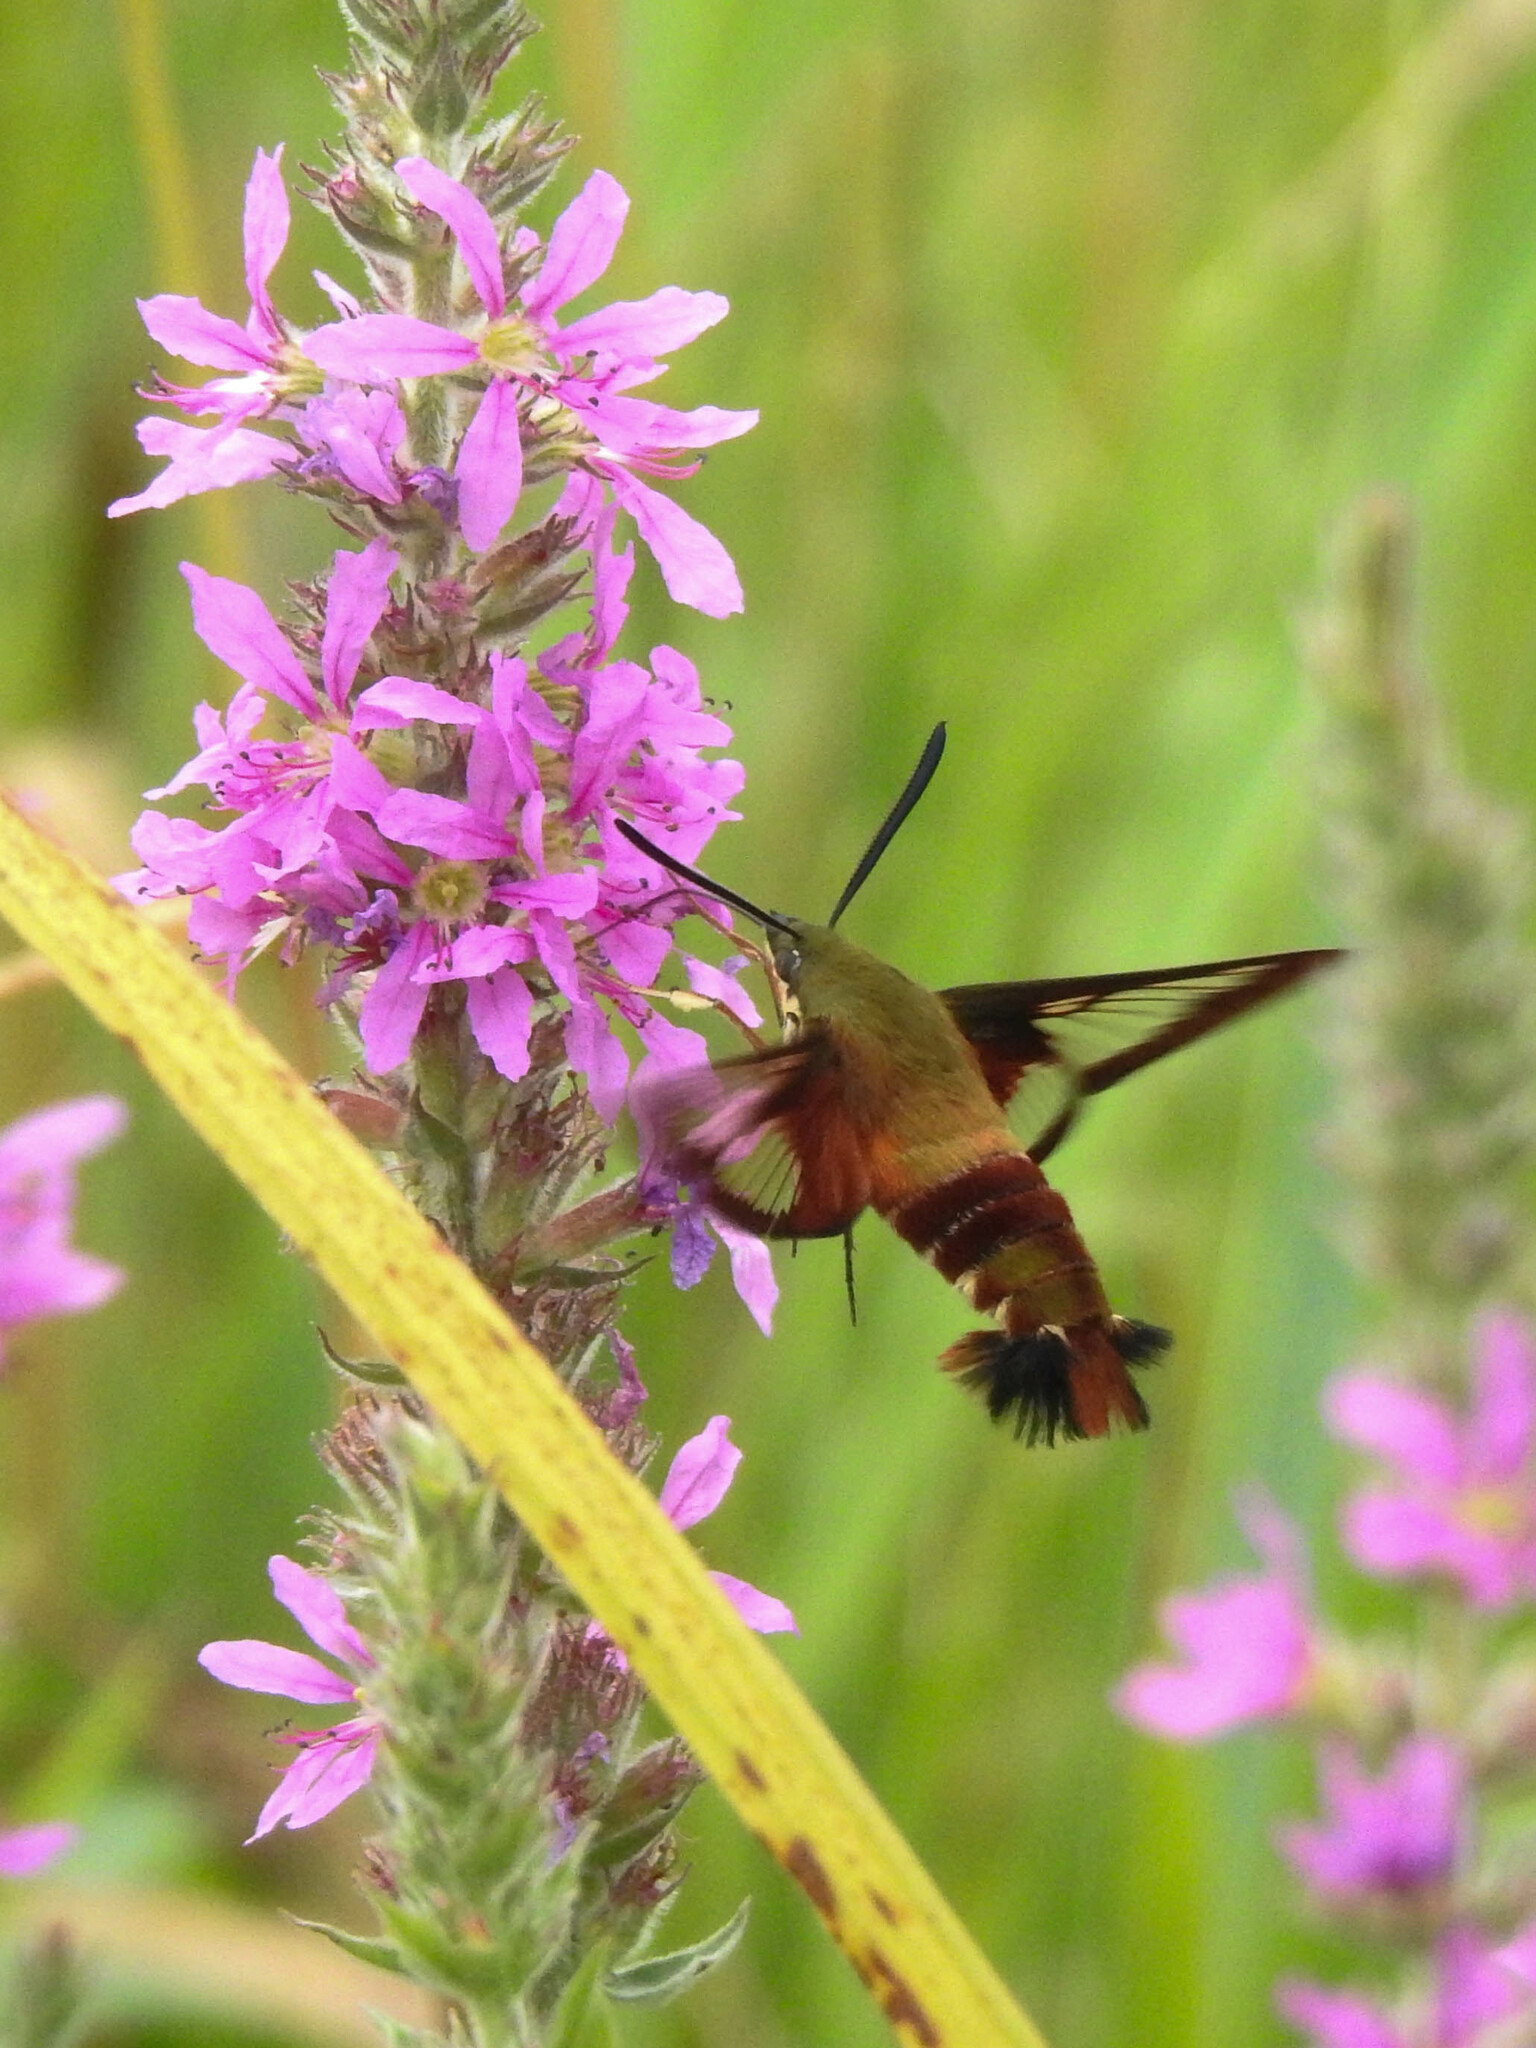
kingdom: Animalia
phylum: Arthropoda
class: Insecta
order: Lepidoptera
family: Sphingidae
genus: Hemaris
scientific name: Hemaris thysbe
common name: Common clear-wing
